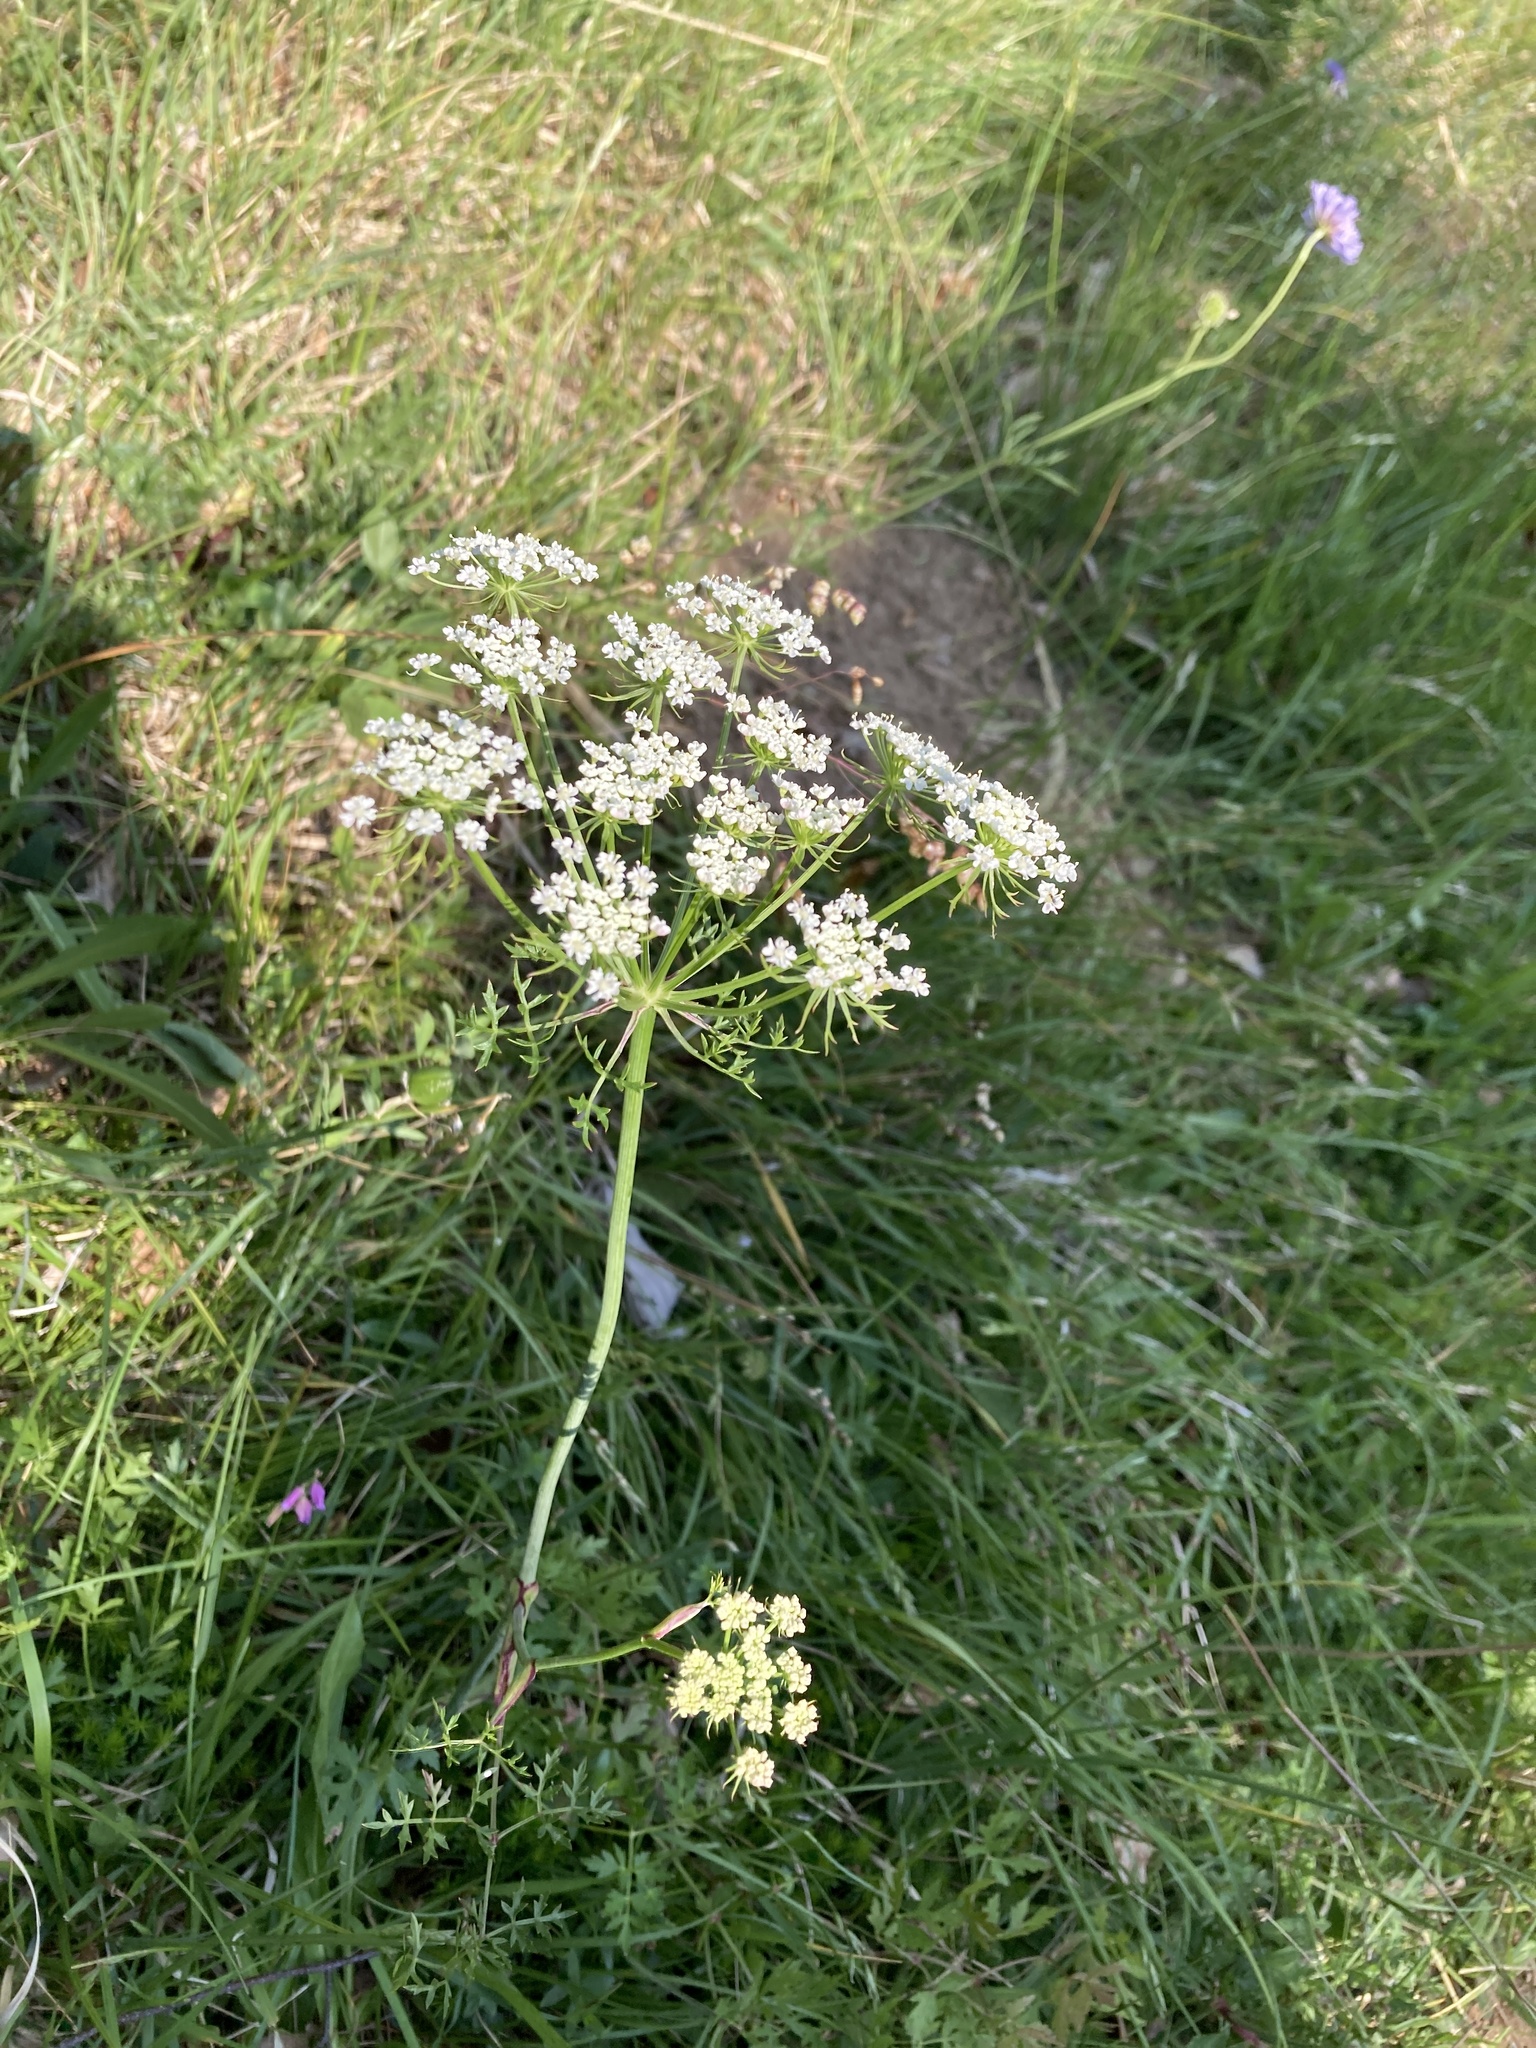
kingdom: Plantae
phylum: Tracheophyta
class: Magnoliopsida
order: Apiales
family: Apiaceae
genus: Oreoselinum
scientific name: Oreoselinum nigrum
